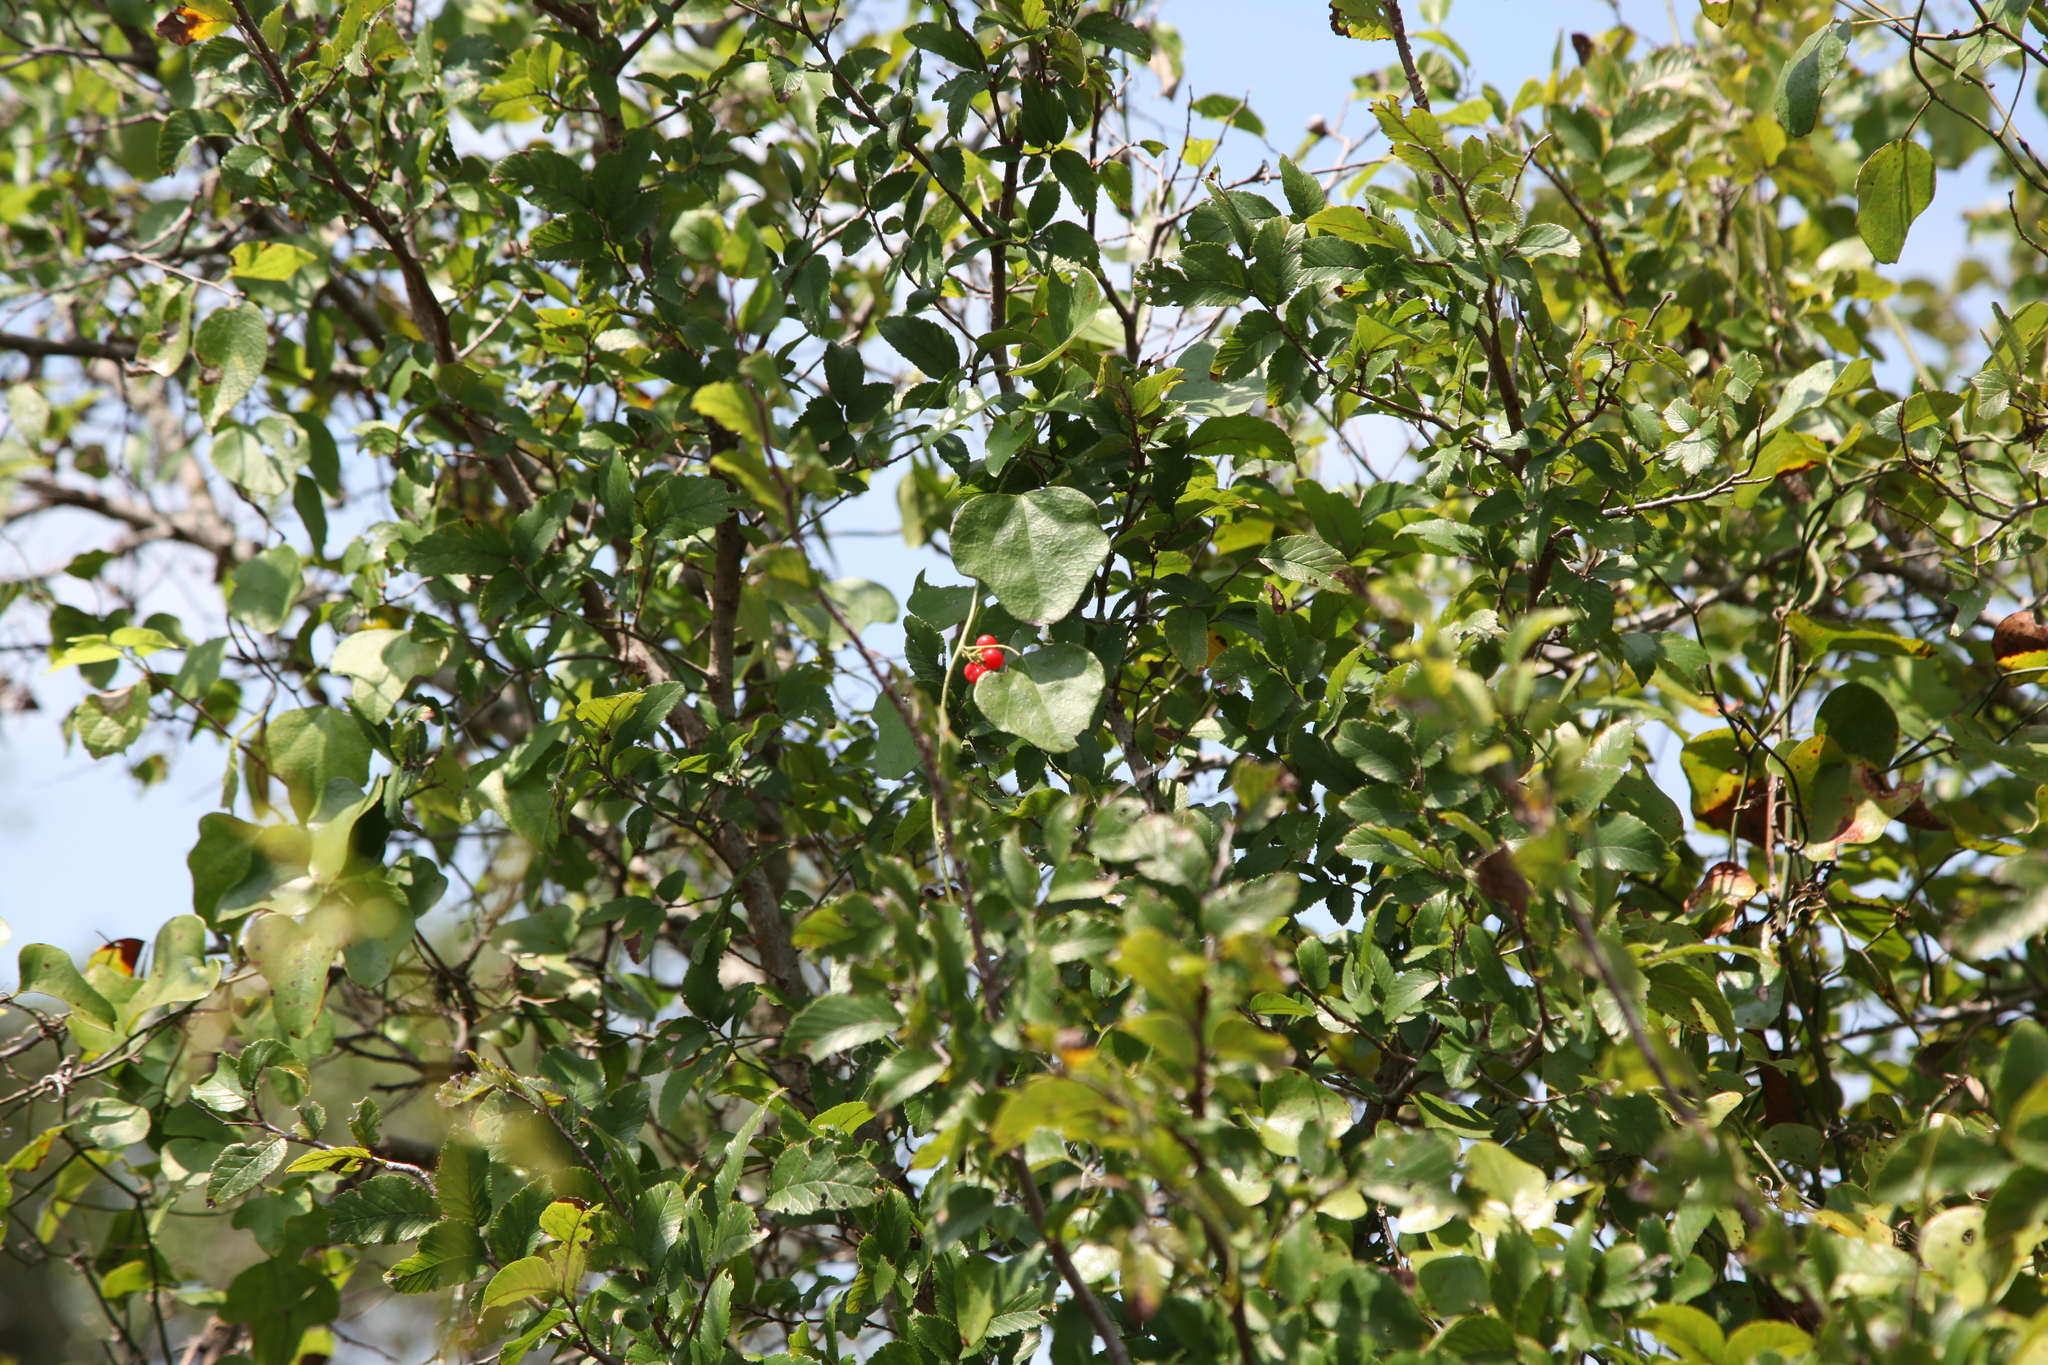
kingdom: Plantae
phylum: Tracheophyta
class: Magnoliopsida
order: Ranunculales
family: Menispermaceae
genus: Cocculus
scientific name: Cocculus carolinus
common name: Carolina moonseed
